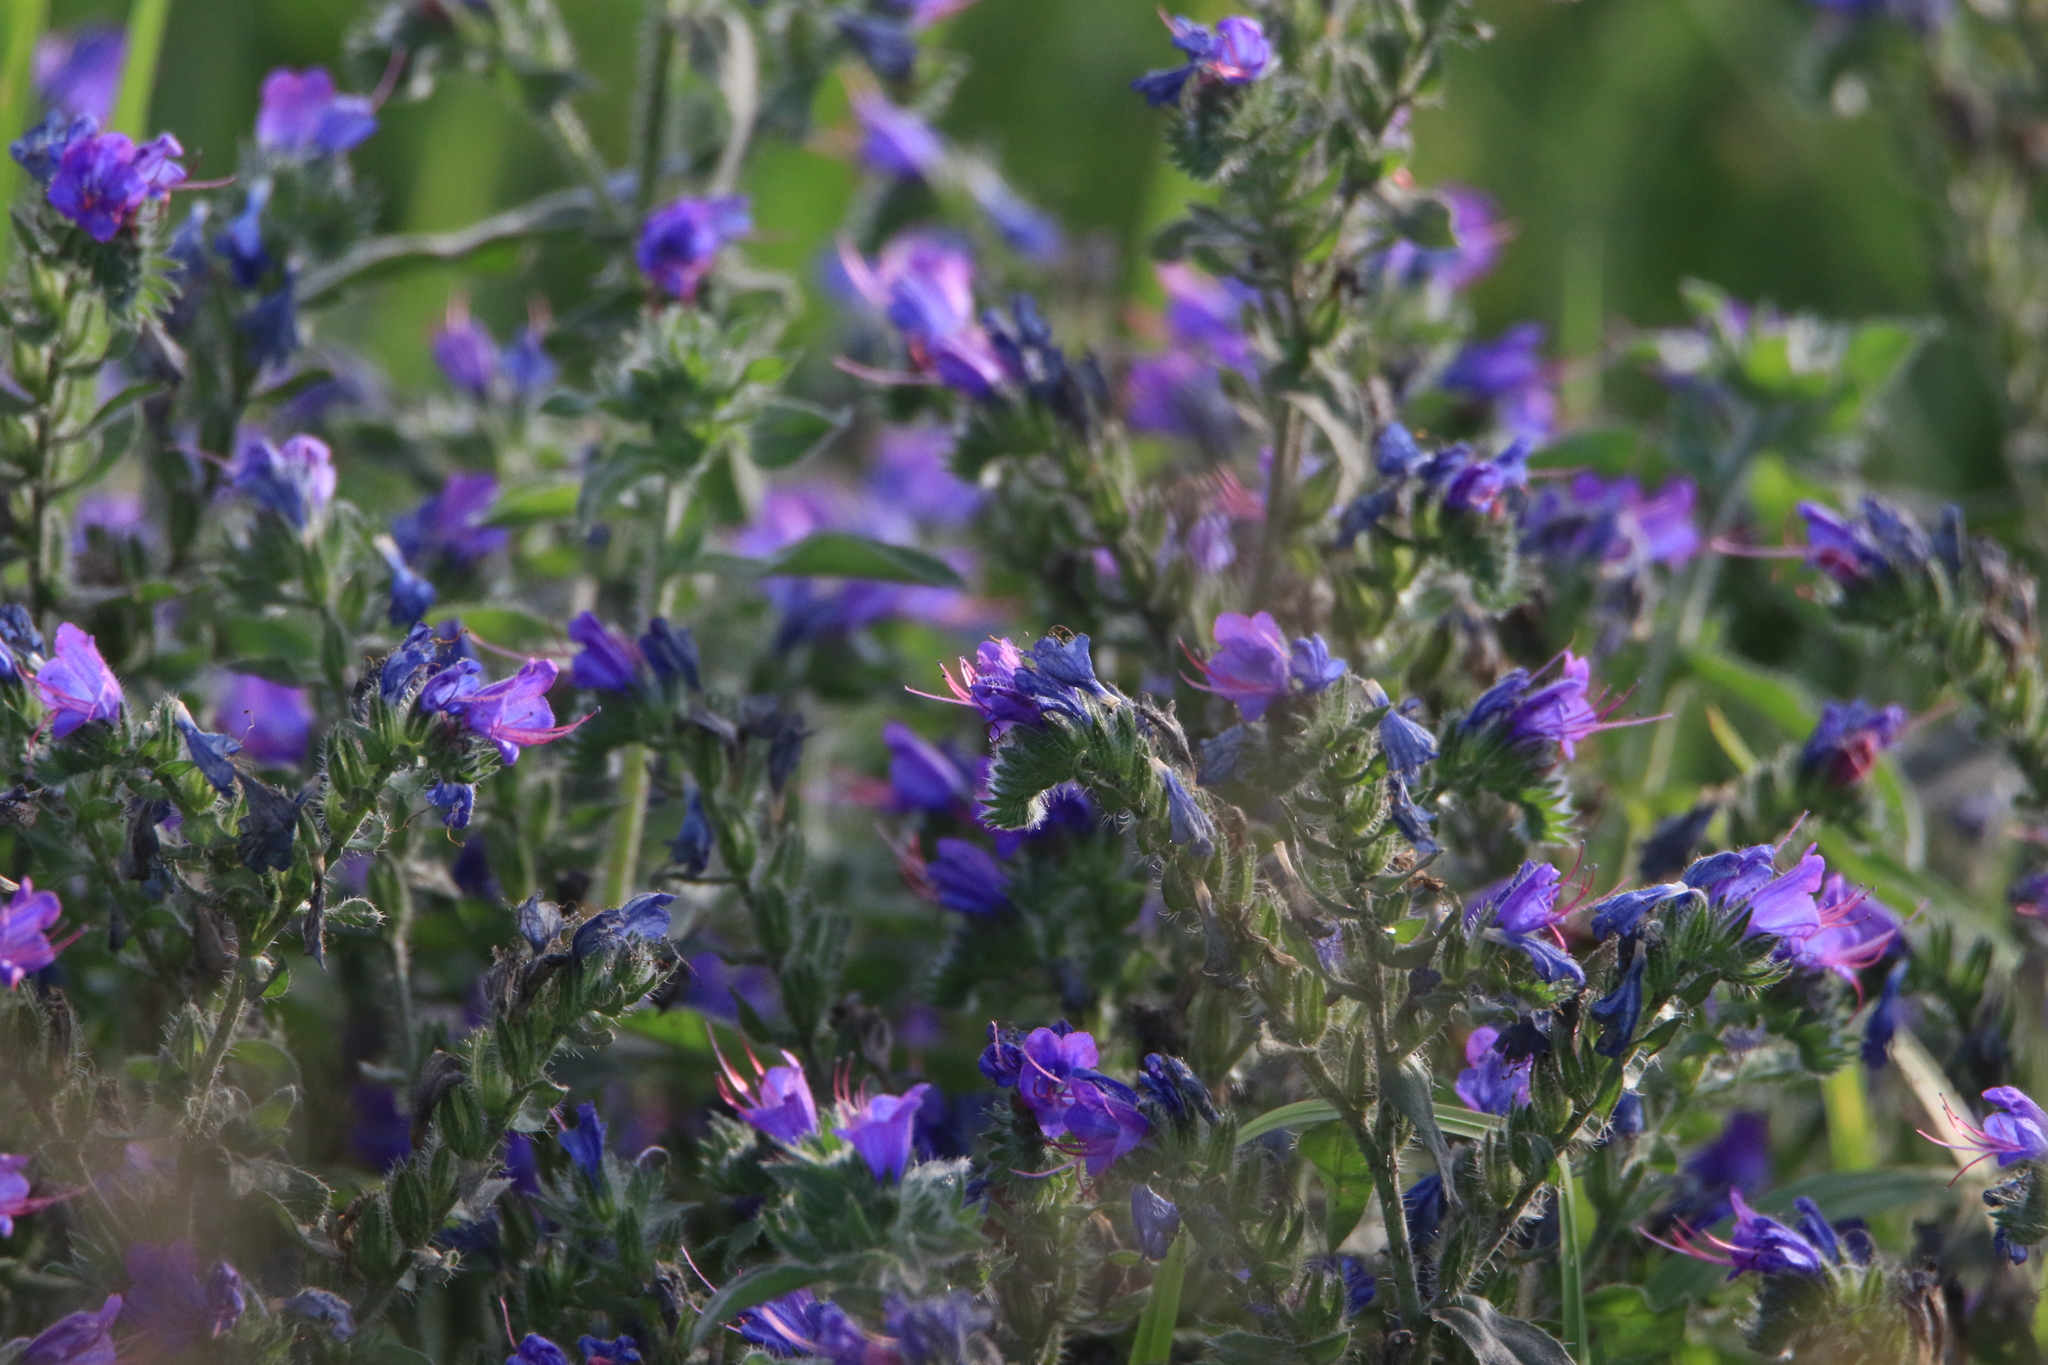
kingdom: Plantae
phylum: Tracheophyta
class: Magnoliopsida
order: Boraginales
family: Boraginaceae
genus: Echium
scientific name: Echium vulgare
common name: Common viper's bugloss
